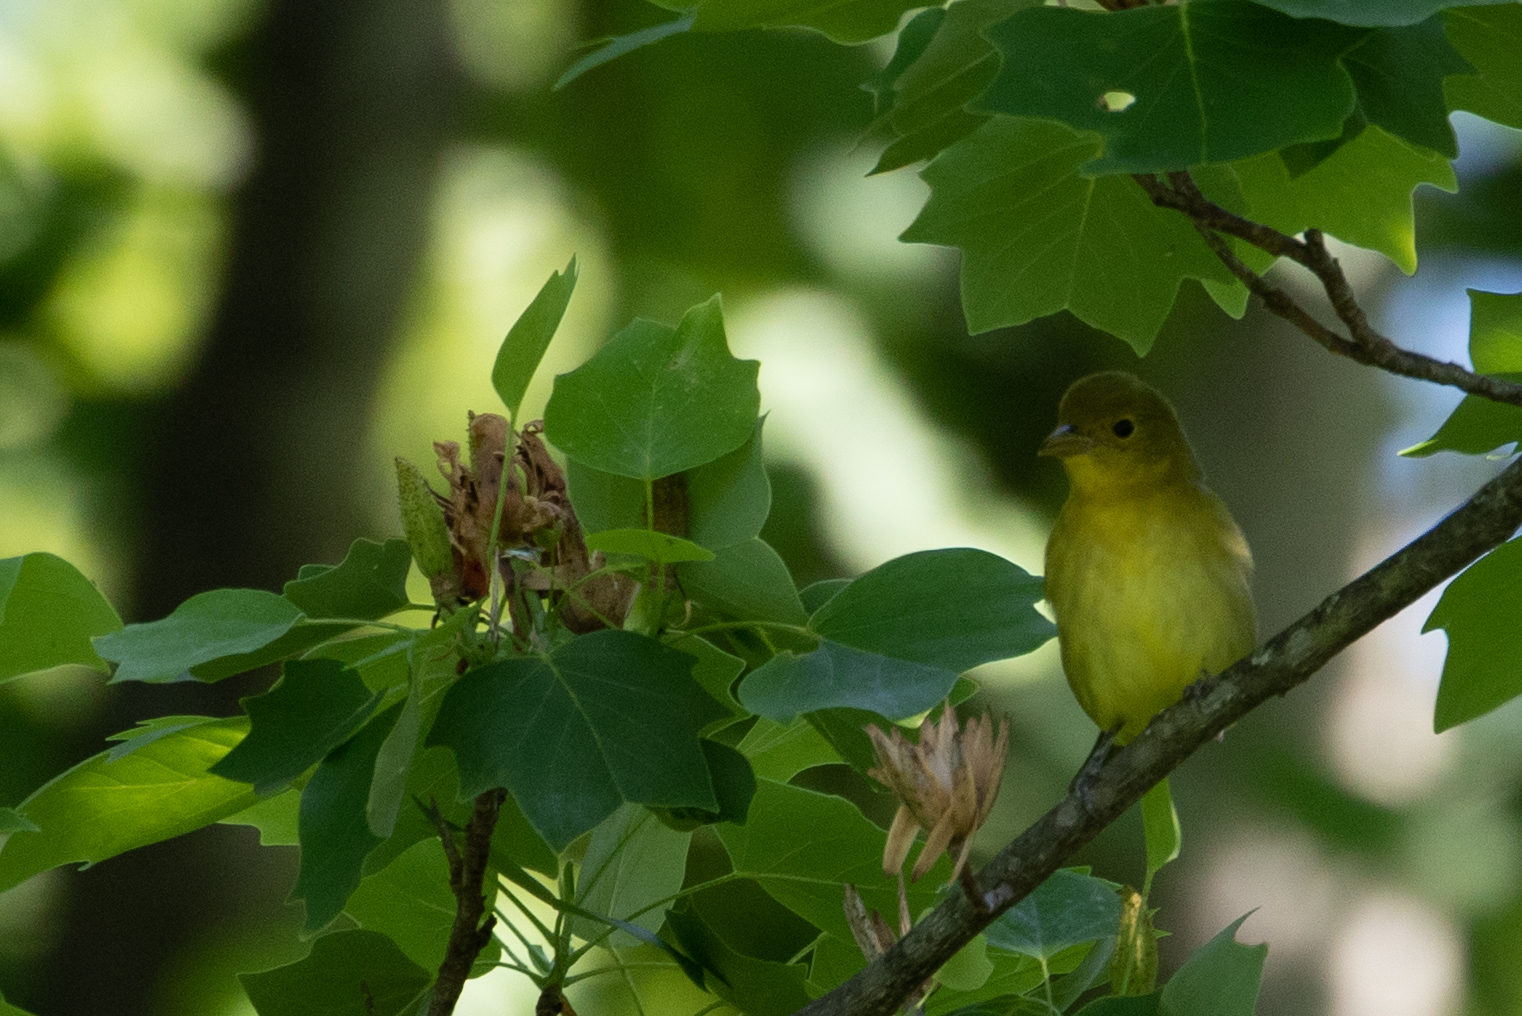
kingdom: Animalia
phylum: Chordata
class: Aves
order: Passeriformes
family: Cardinalidae
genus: Piranga
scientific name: Piranga olivacea
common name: Scarlet tanager
